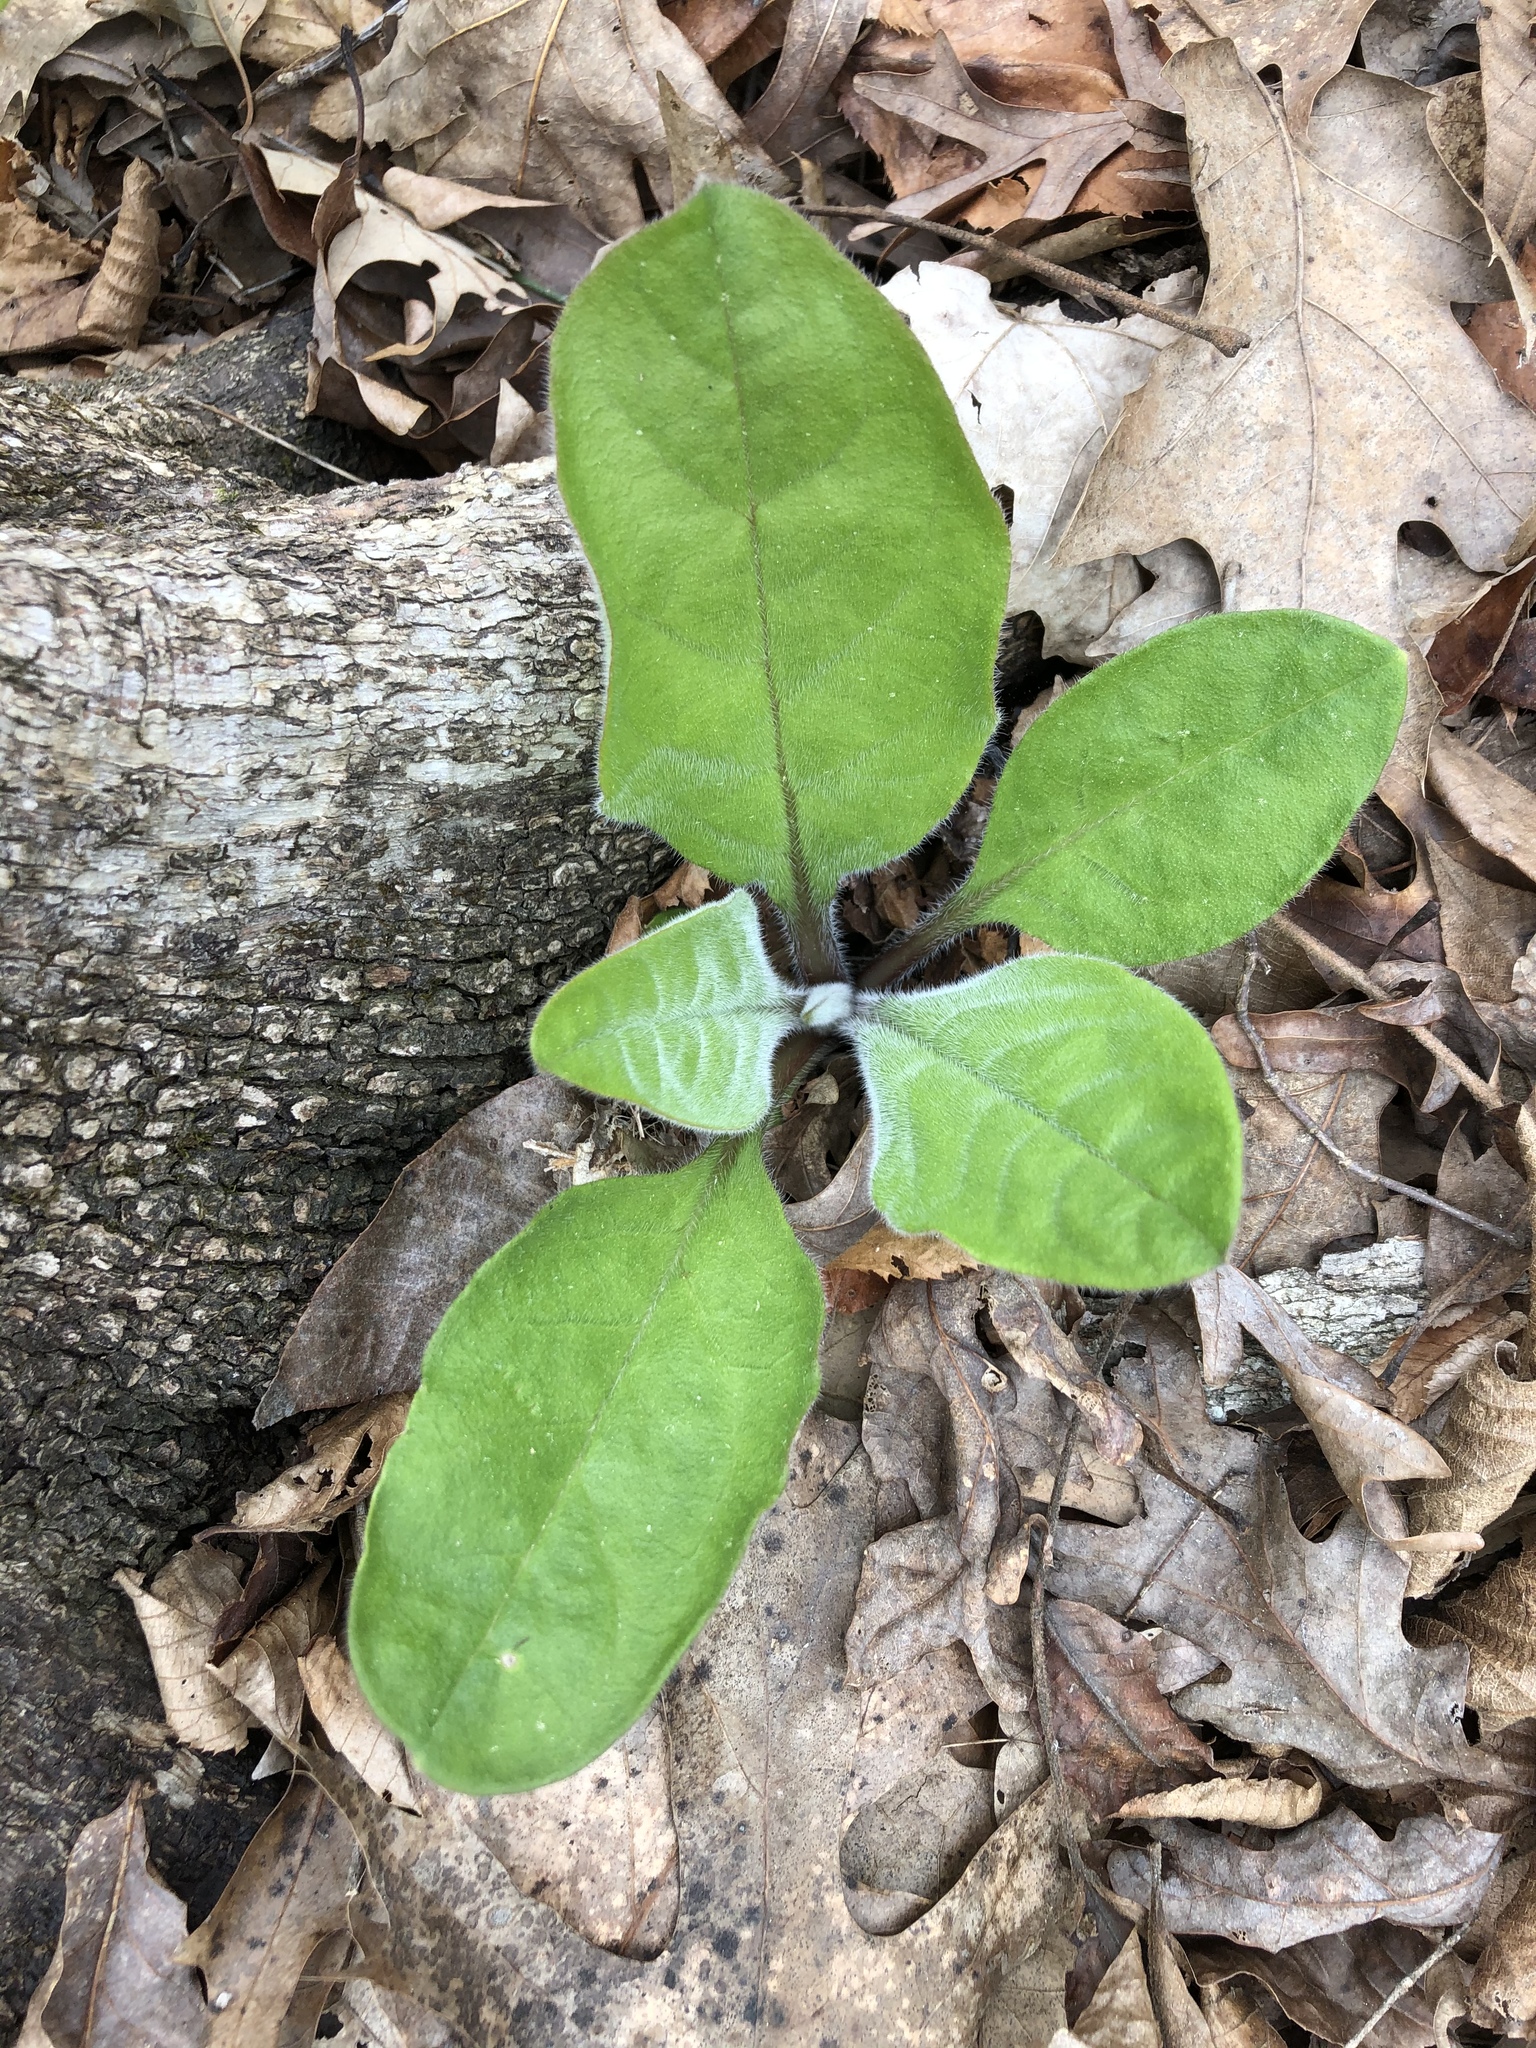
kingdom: Plantae
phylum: Tracheophyta
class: Magnoliopsida
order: Boraginales
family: Boraginaceae
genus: Andersonglossum
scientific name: Andersonglossum virginianum
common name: Wild comfrey
